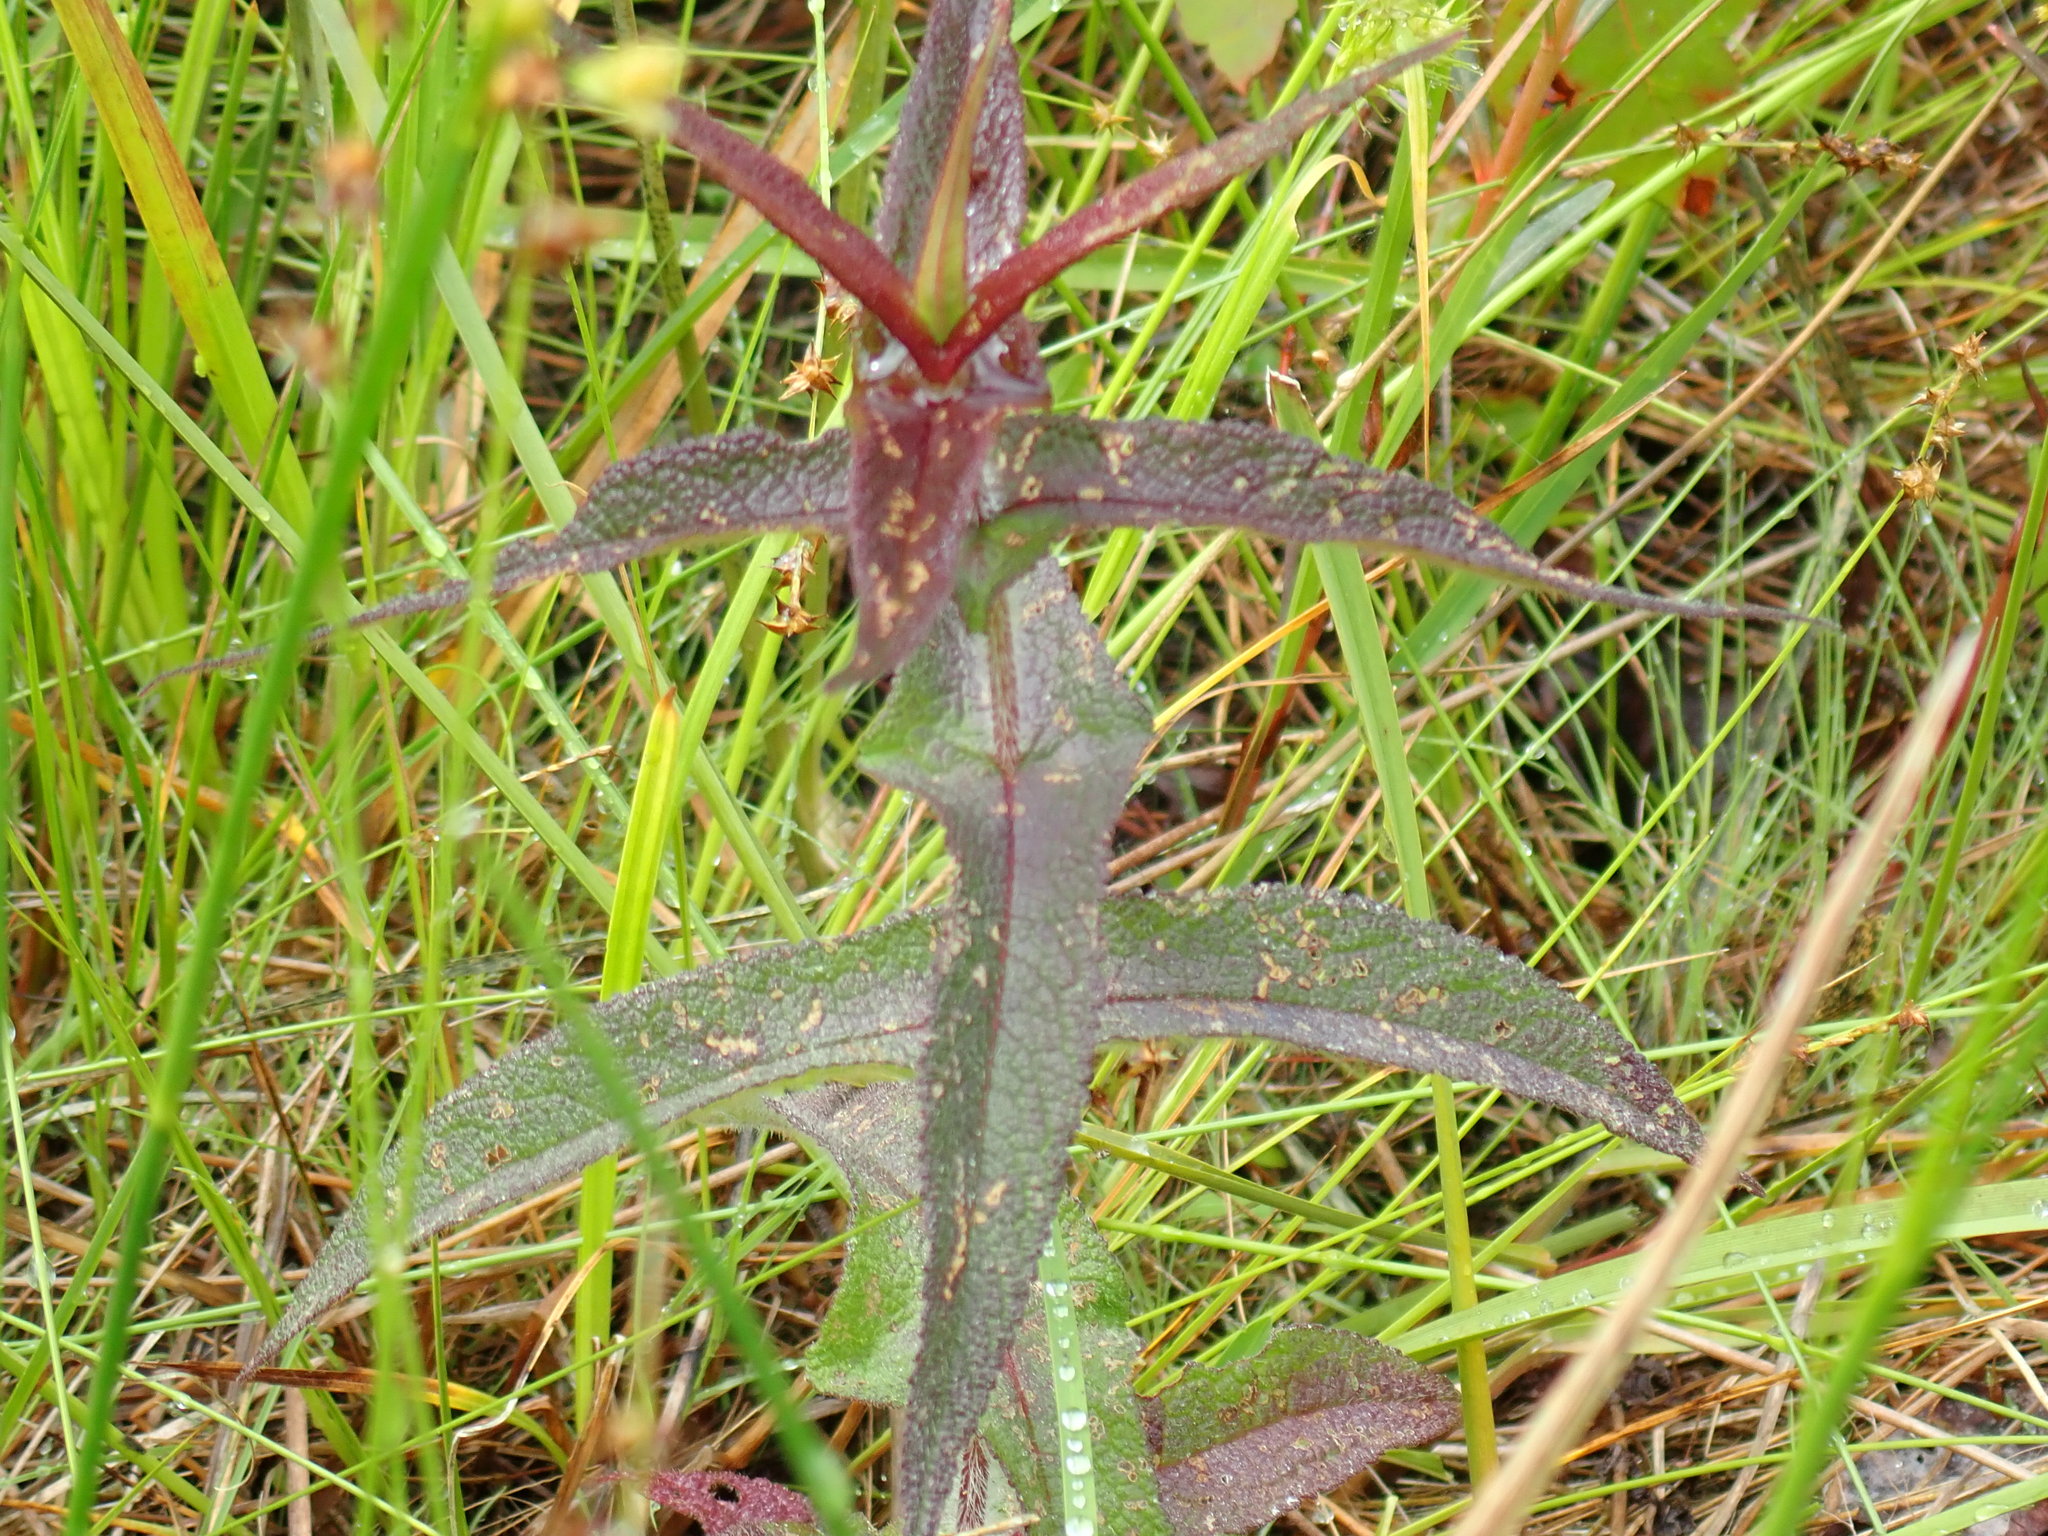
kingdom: Plantae
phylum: Tracheophyta
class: Magnoliopsida
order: Asterales
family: Asteraceae
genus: Eupatorium
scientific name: Eupatorium perfoliatum
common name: Boneset
